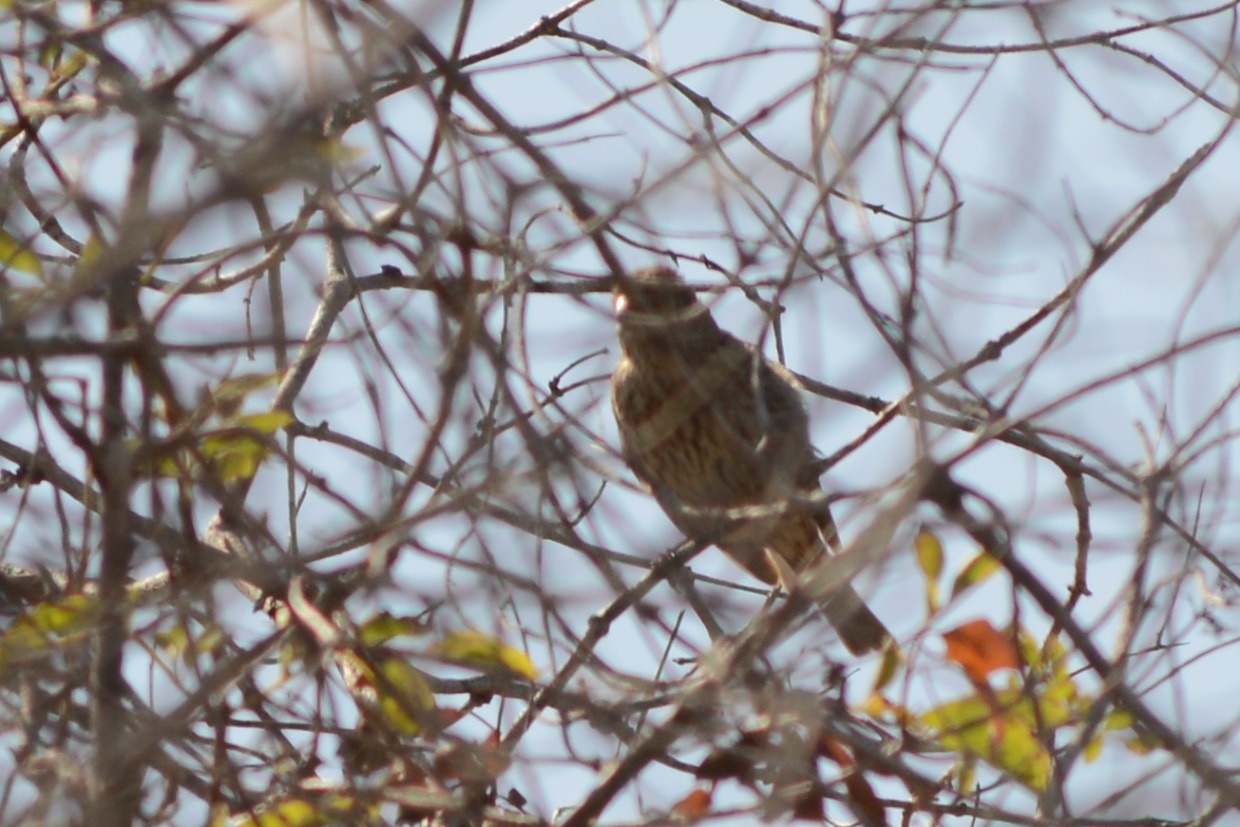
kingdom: Animalia
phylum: Chordata
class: Aves
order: Passeriformes
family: Fringillidae
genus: Haemorhous
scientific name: Haemorhous mexicanus
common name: House finch
